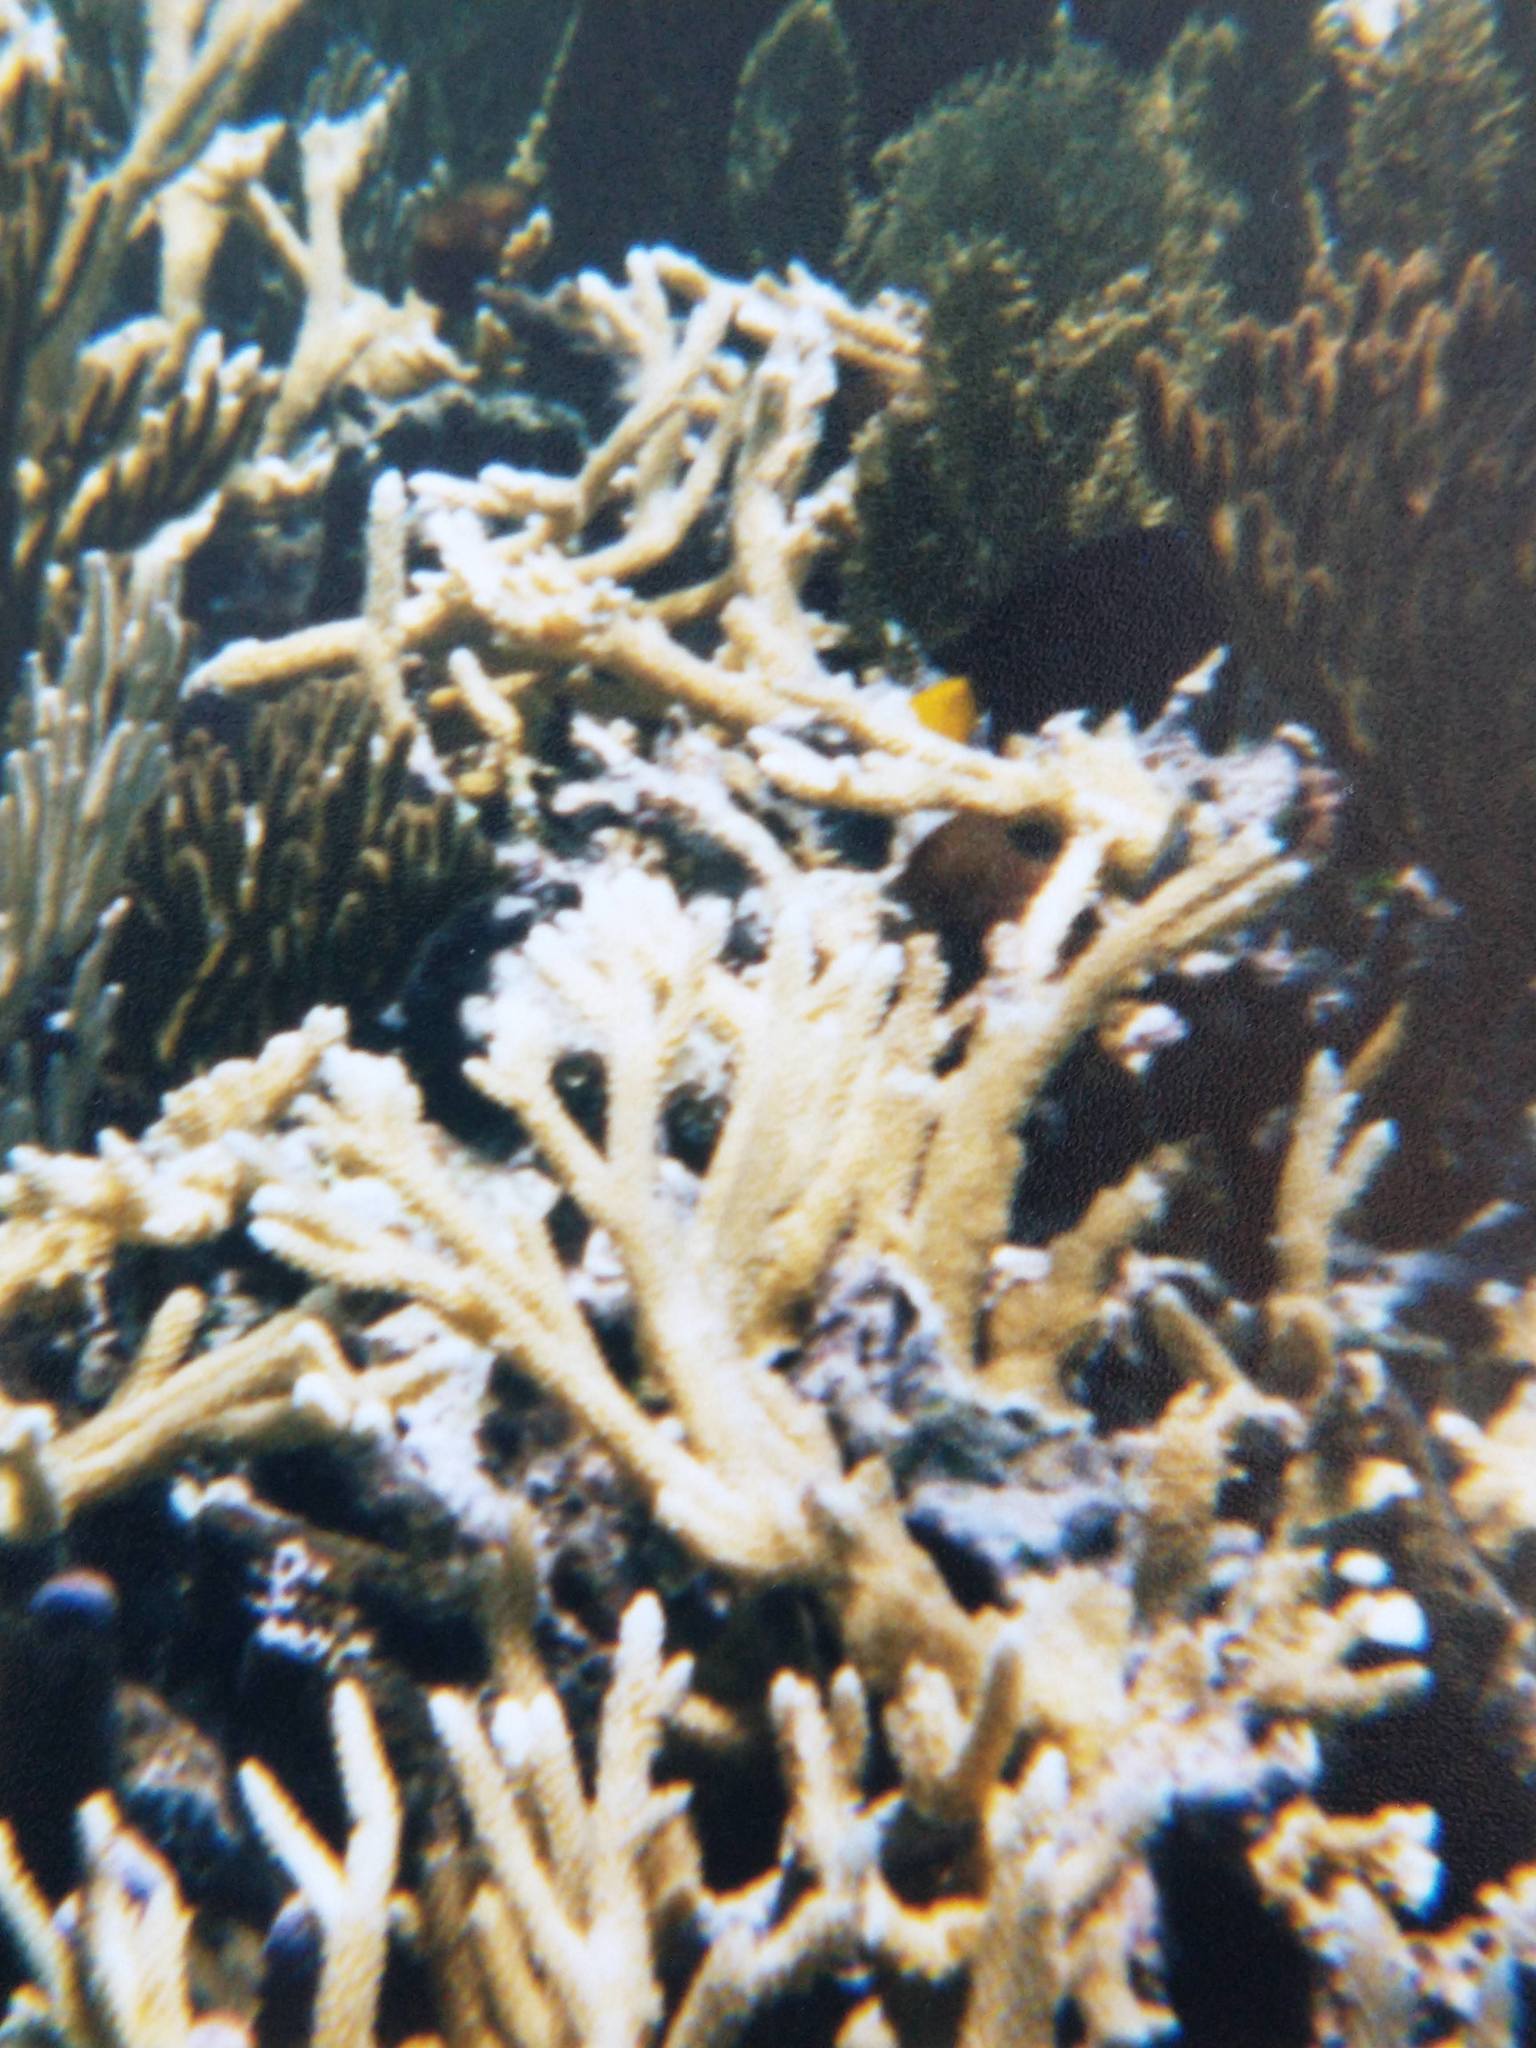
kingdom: Animalia
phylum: Chordata
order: Perciformes
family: Pomacentridae
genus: Microspathodon
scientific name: Microspathodon chrysurus
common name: Yellowtail damselfish
